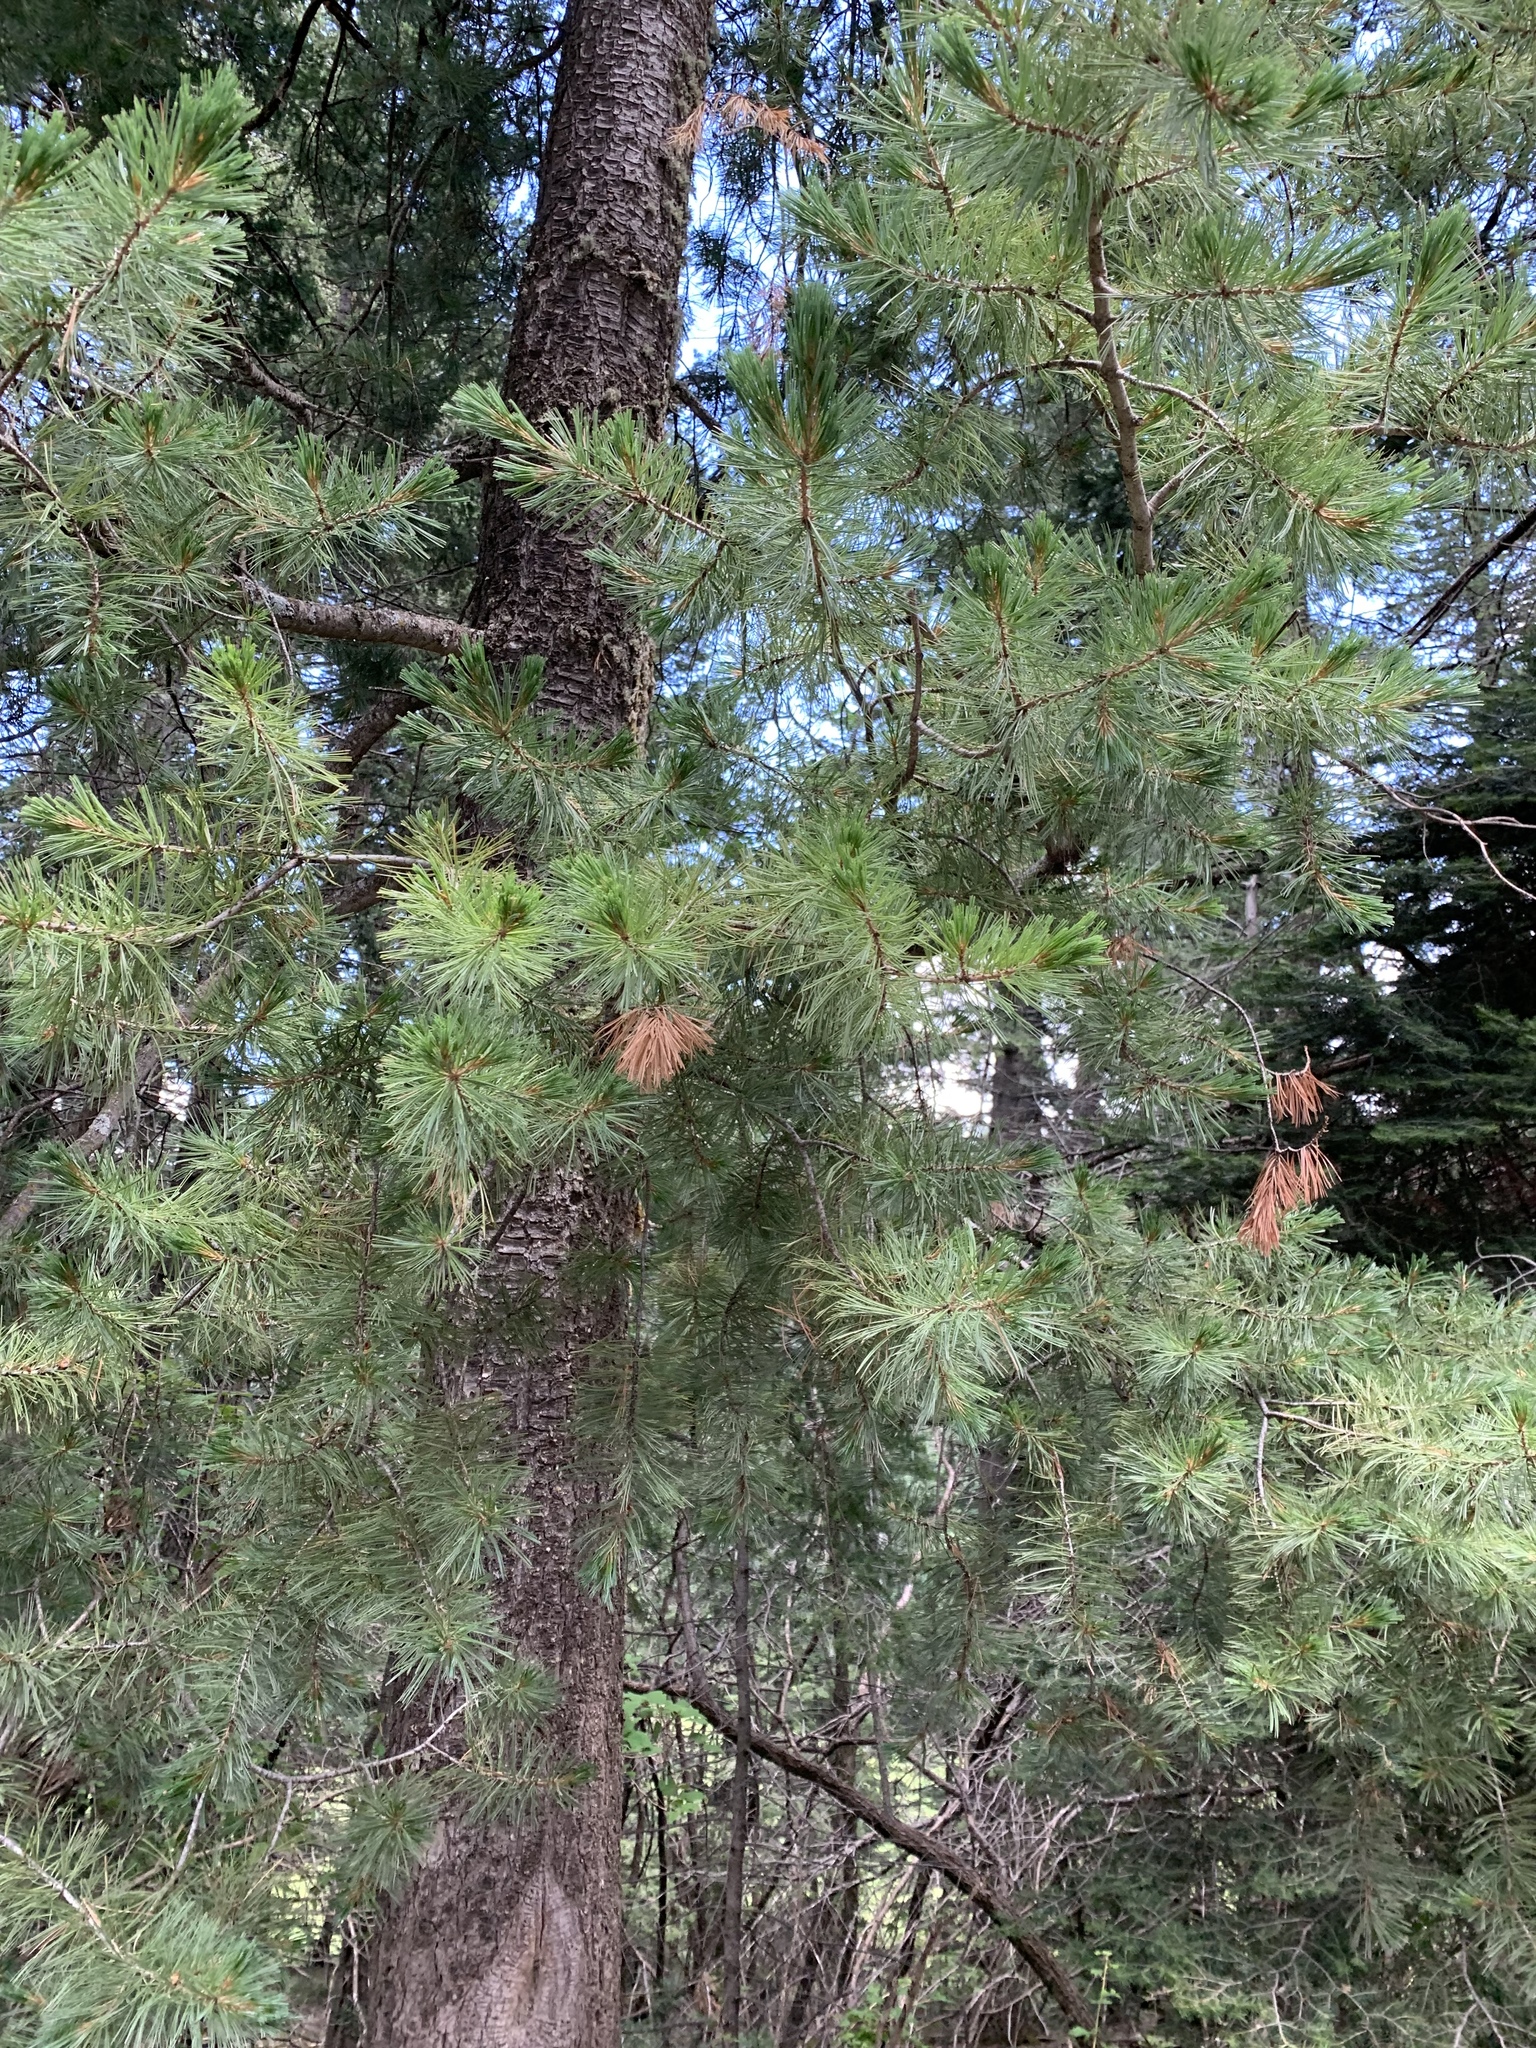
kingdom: Plantae
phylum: Tracheophyta
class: Pinopsida
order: Pinales
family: Pinaceae
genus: Pinus
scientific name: Pinus strobiformis
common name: Southwestern white pine
